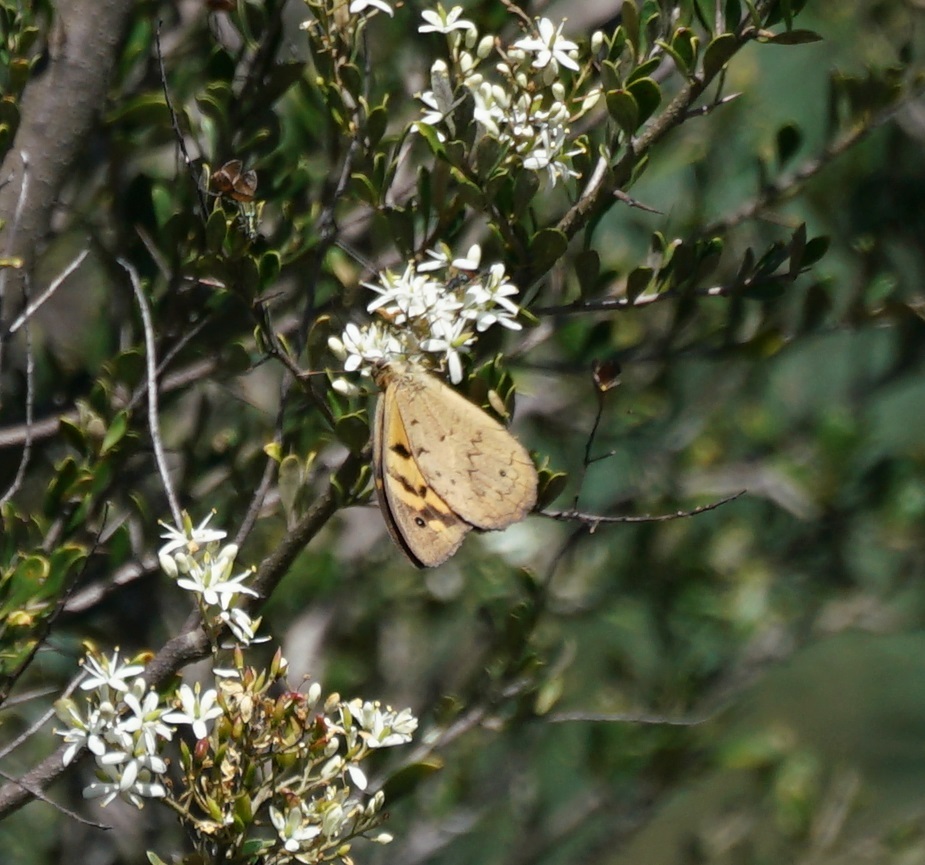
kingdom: Animalia
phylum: Arthropoda
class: Insecta
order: Lepidoptera
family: Nymphalidae
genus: Heteronympha
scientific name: Heteronympha merope
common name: Common brown
